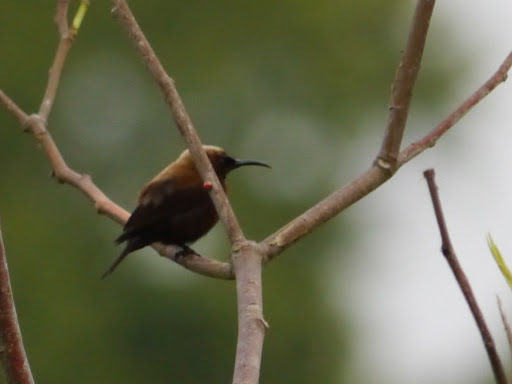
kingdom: Animalia
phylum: Chordata
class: Aves
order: Passeriformes
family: Nectariniidae
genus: Chalcomitra
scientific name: Chalcomitra fuliginosa
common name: Carmelite sunbird
